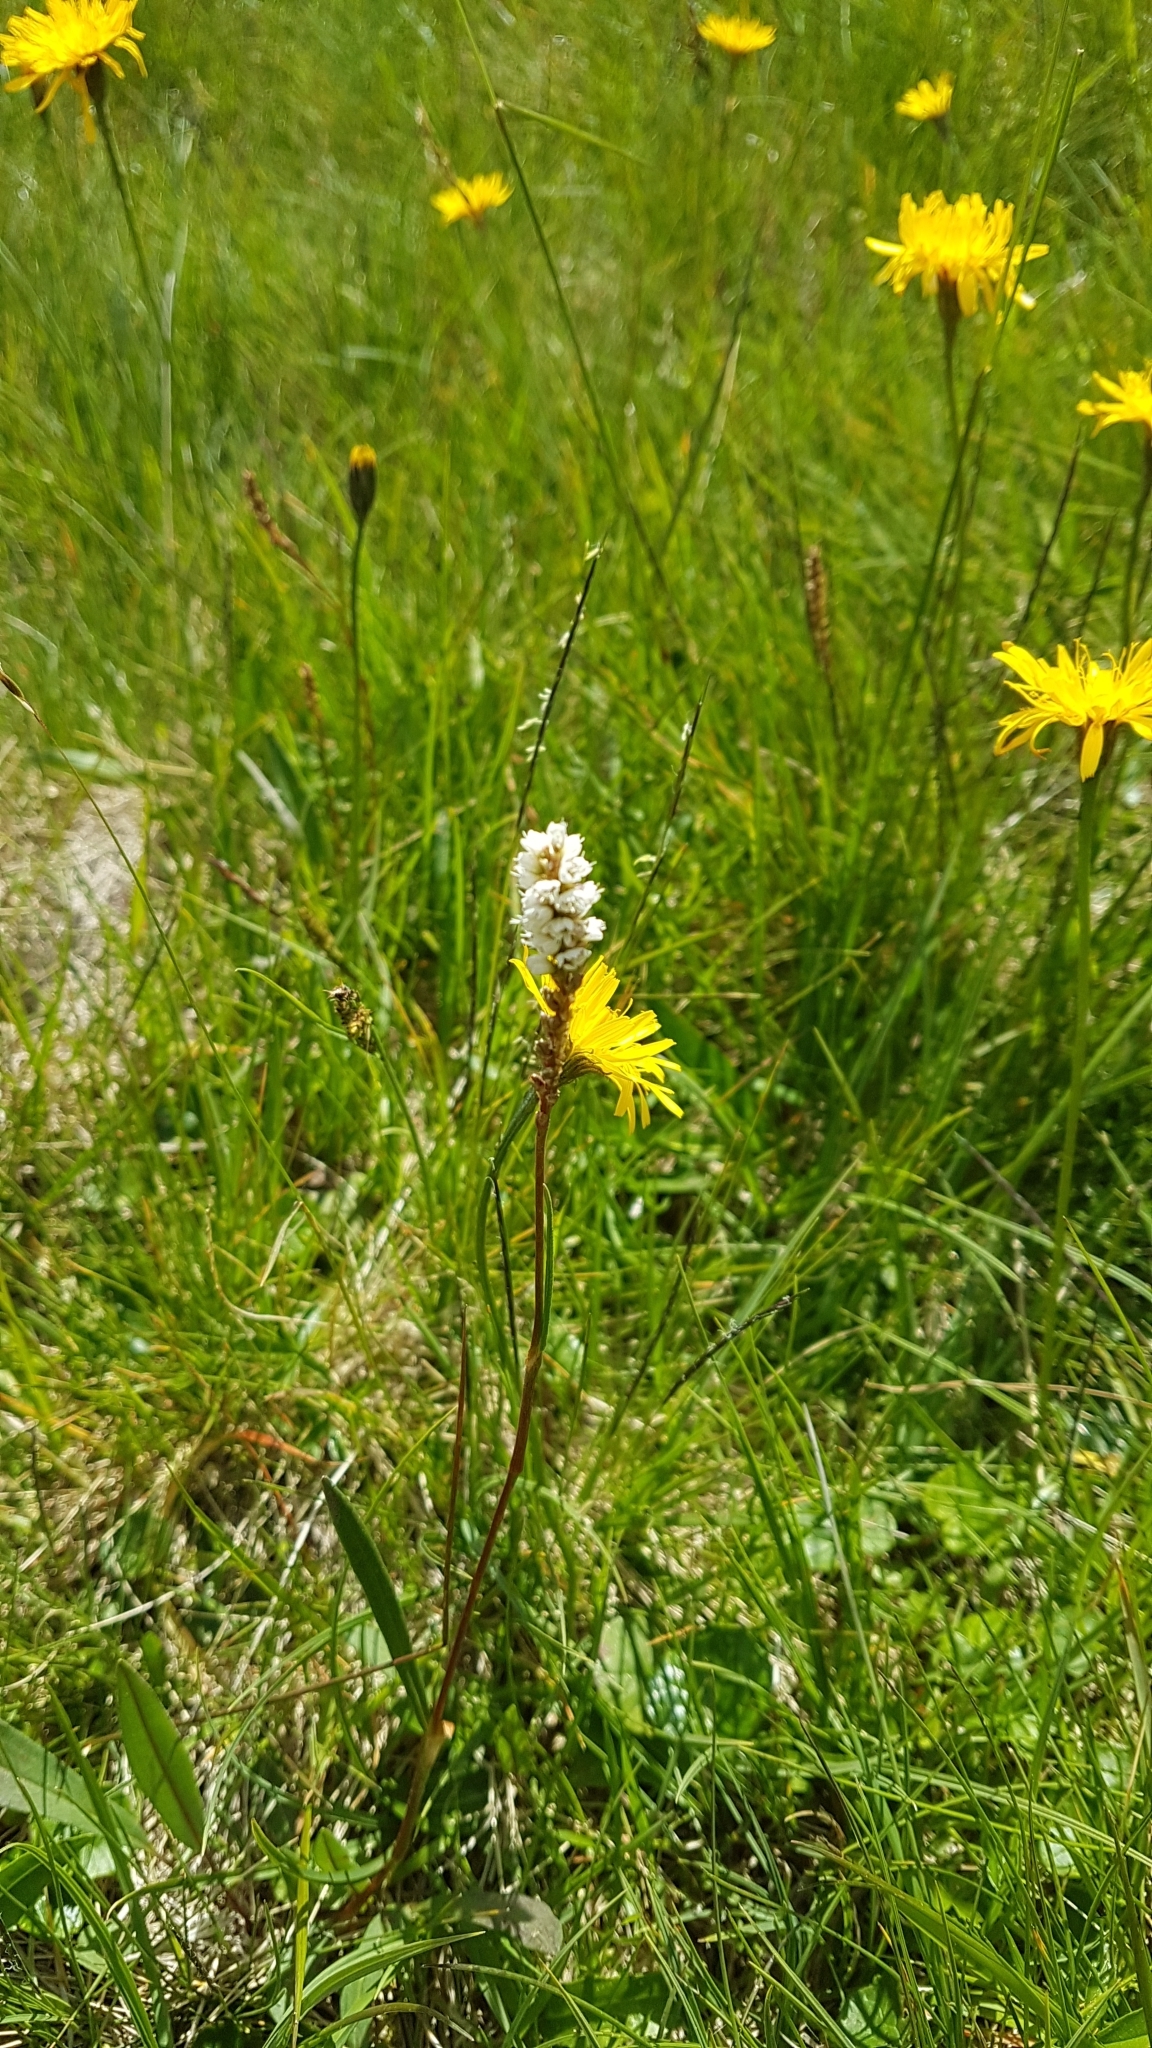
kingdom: Plantae
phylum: Tracheophyta
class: Magnoliopsida
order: Caryophyllales
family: Polygonaceae
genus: Bistorta
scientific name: Bistorta vivipara
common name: Alpine bistort
